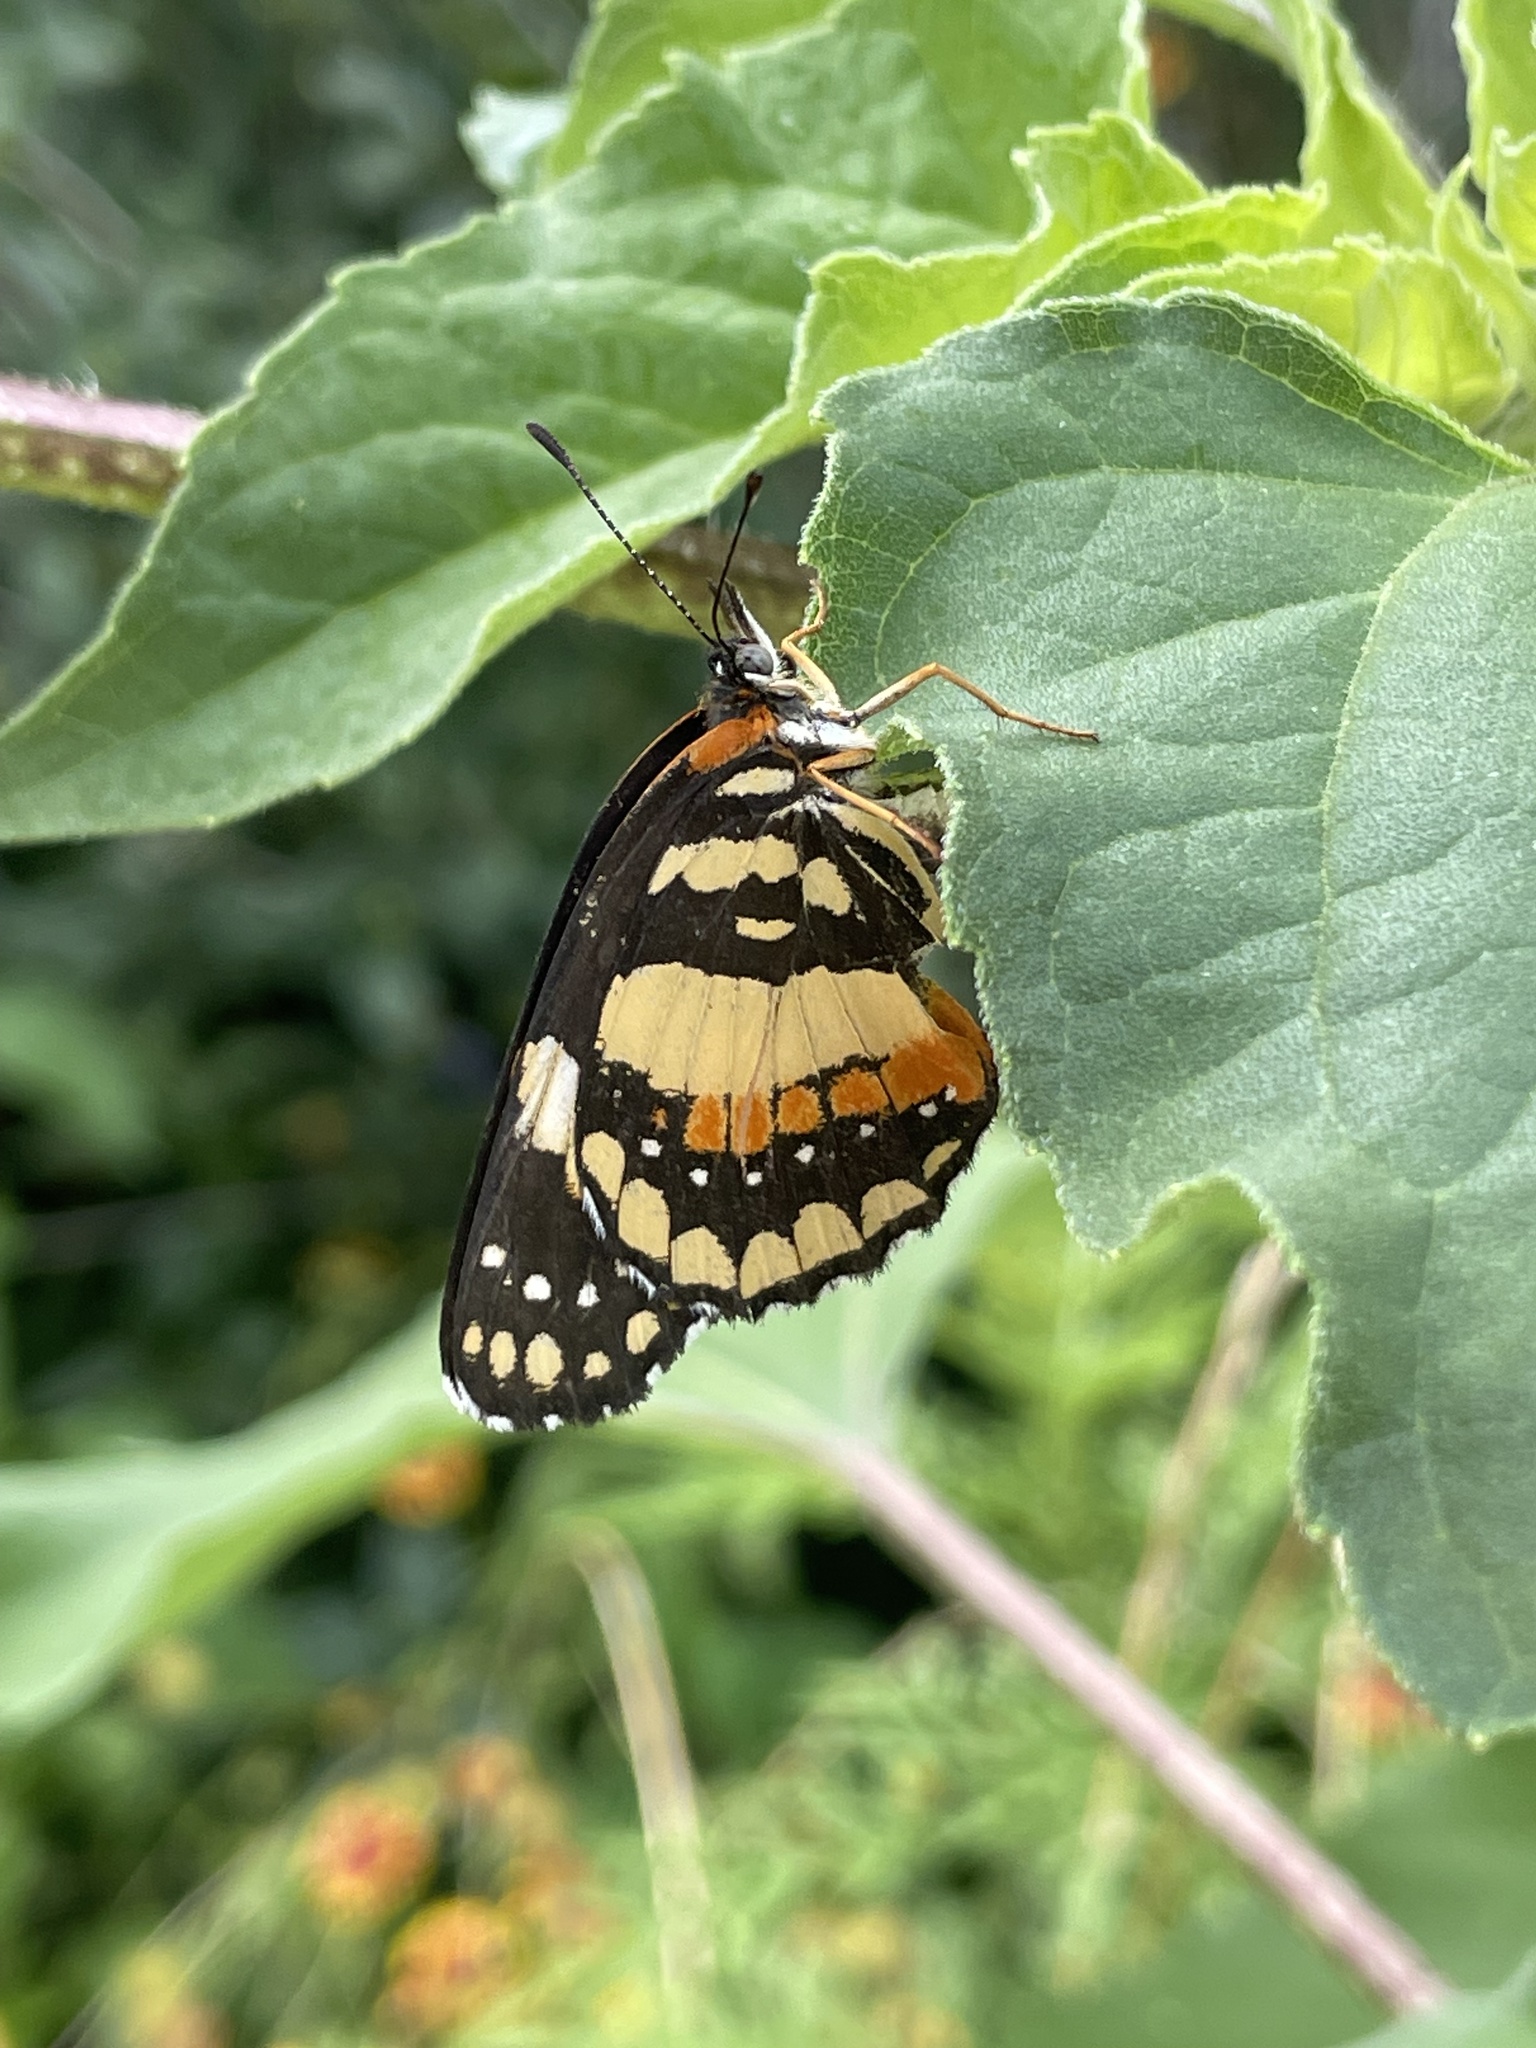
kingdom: Animalia
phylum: Arthropoda
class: Insecta
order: Lepidoptera
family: Nymphalidae
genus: Chlosyne
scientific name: Chlosyne lacinia
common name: Bordered patch
